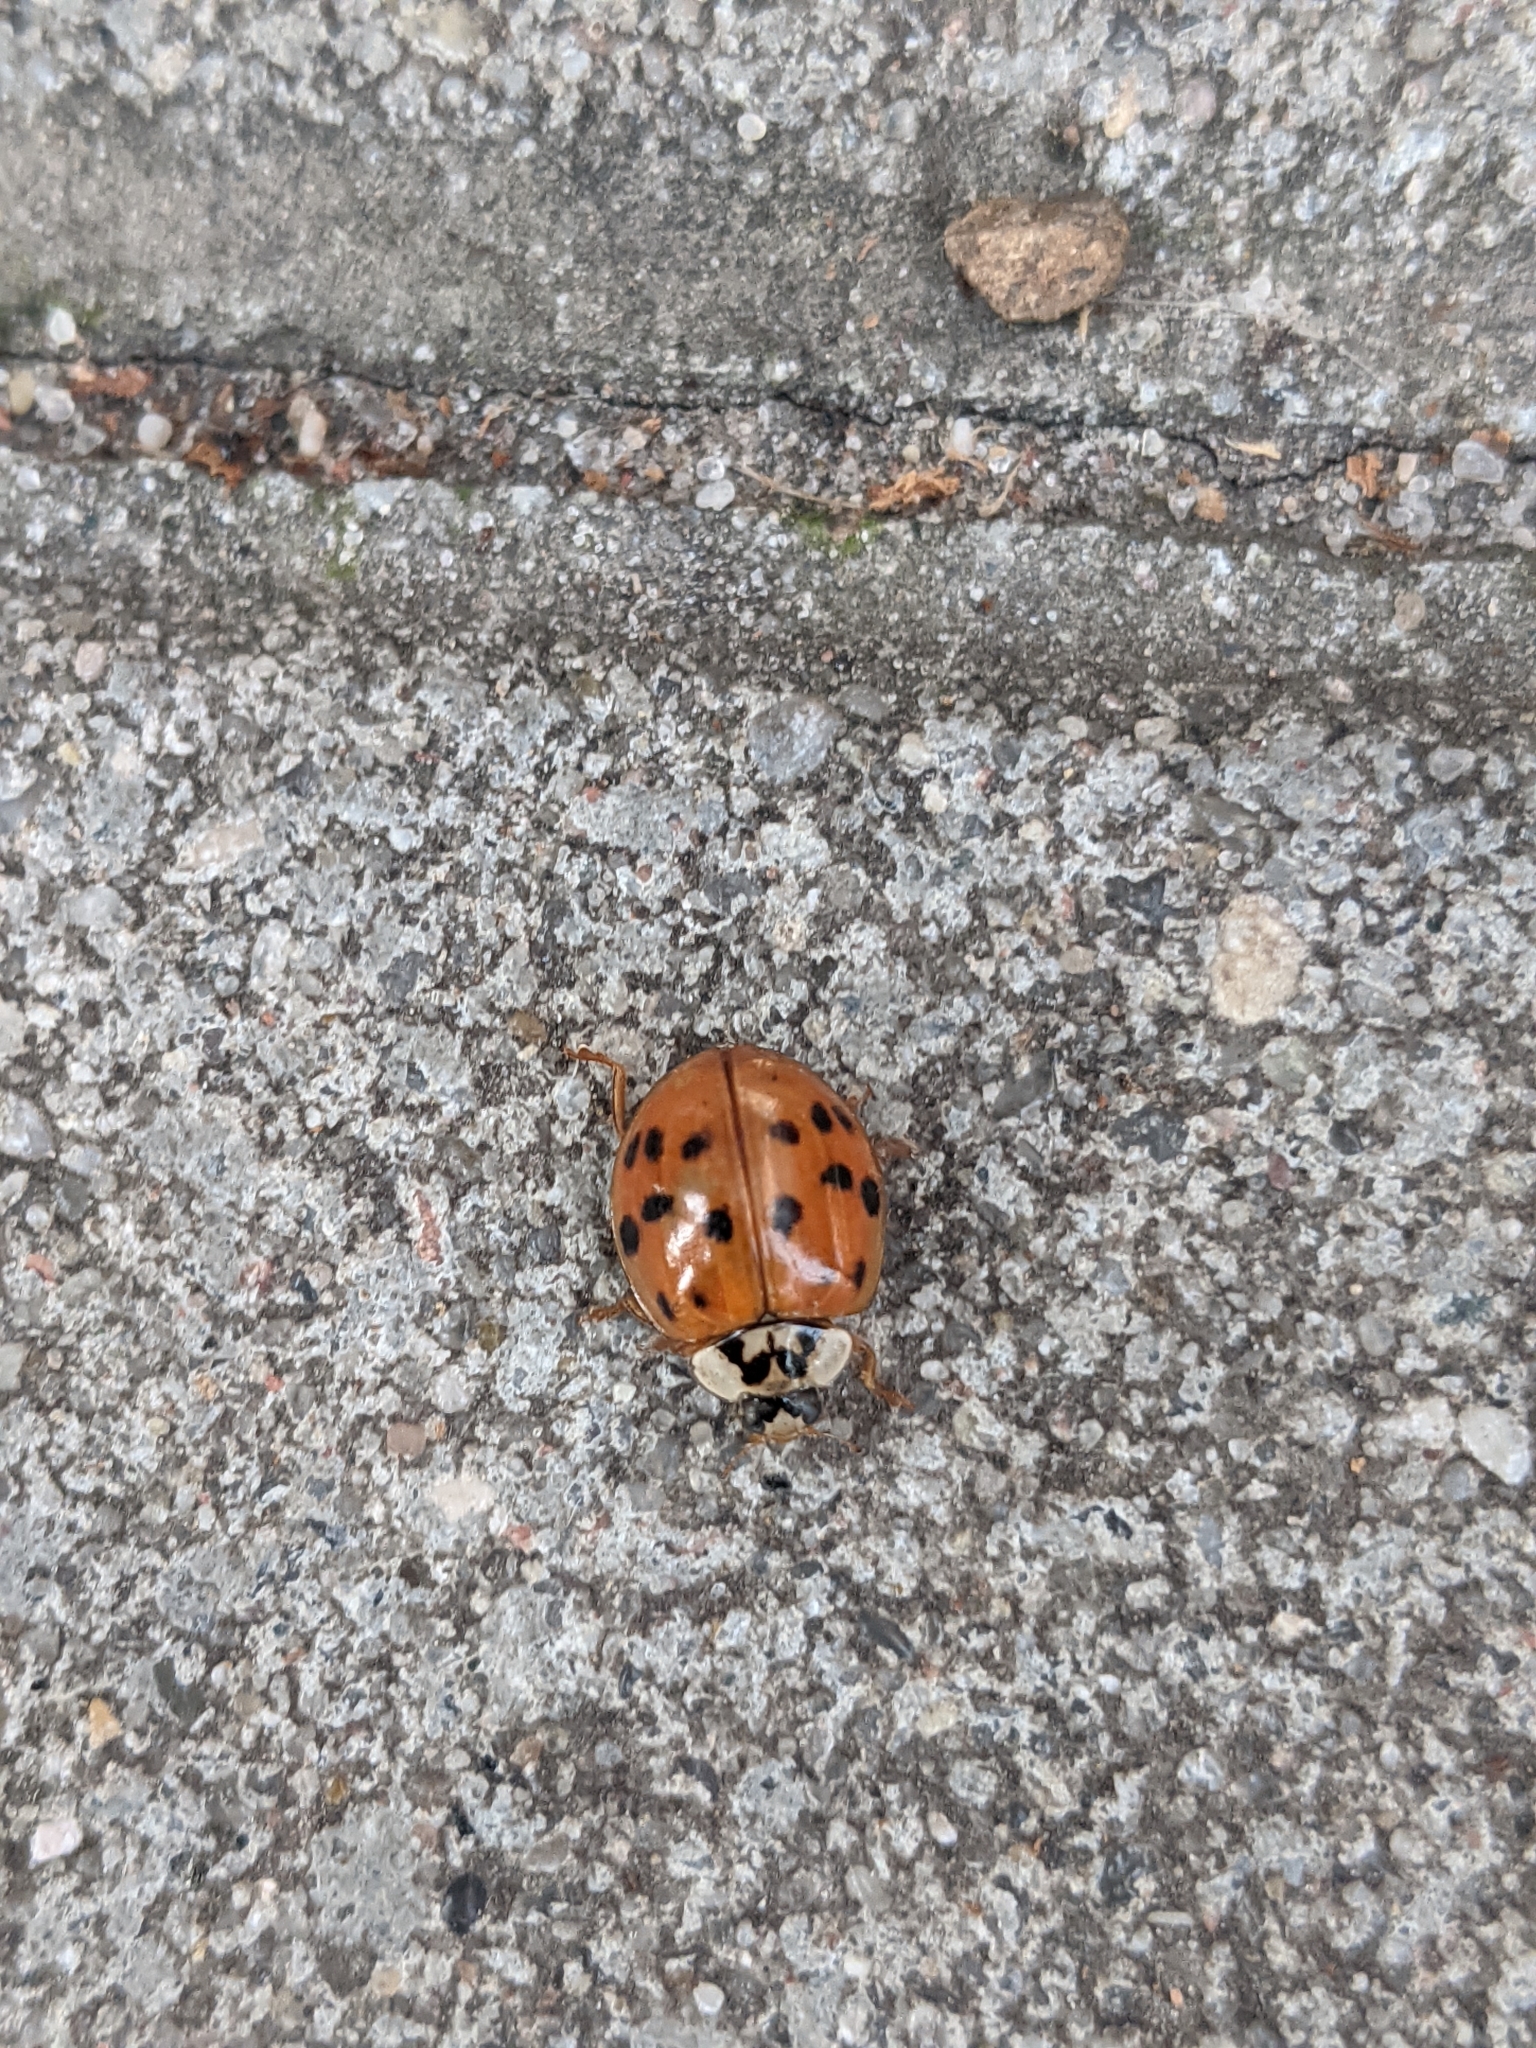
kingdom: Animalia
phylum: Arthropoda
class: Insecta
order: Coleoptera
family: Coccinellidae
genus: Harmonia
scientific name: Harmonia axyridis
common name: Harlequin ladybird
